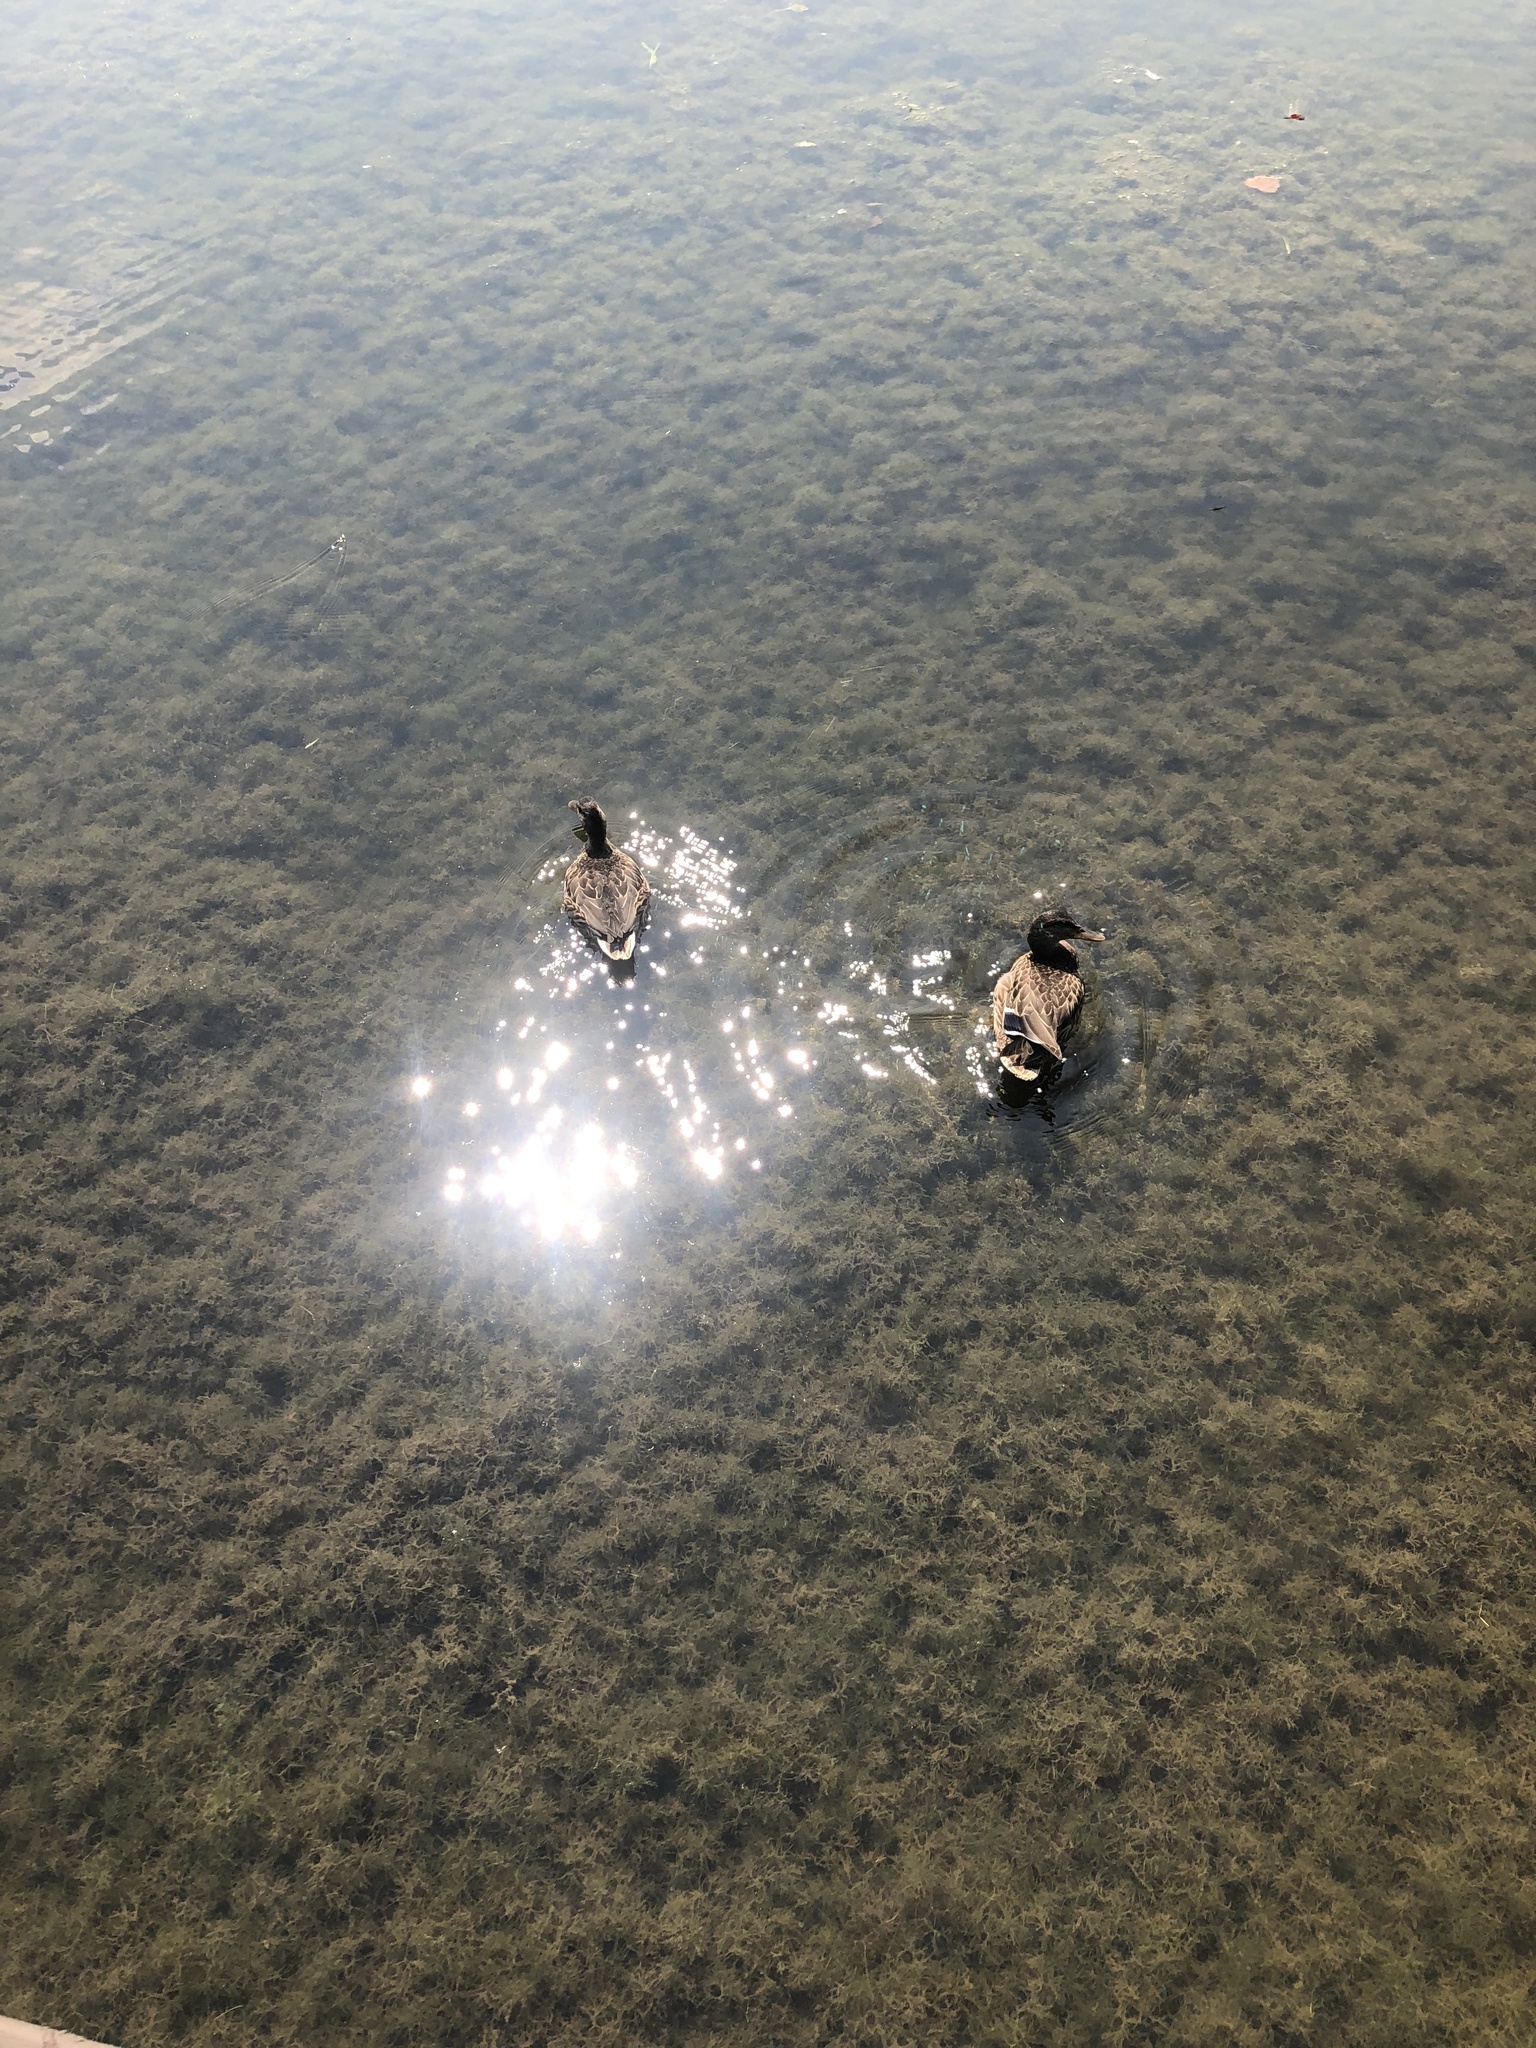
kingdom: Animalia
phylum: Chordata
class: Aves
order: Anseriformes
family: Anatidae
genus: Anas
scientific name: Anas platyrhynchos
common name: Mallard
